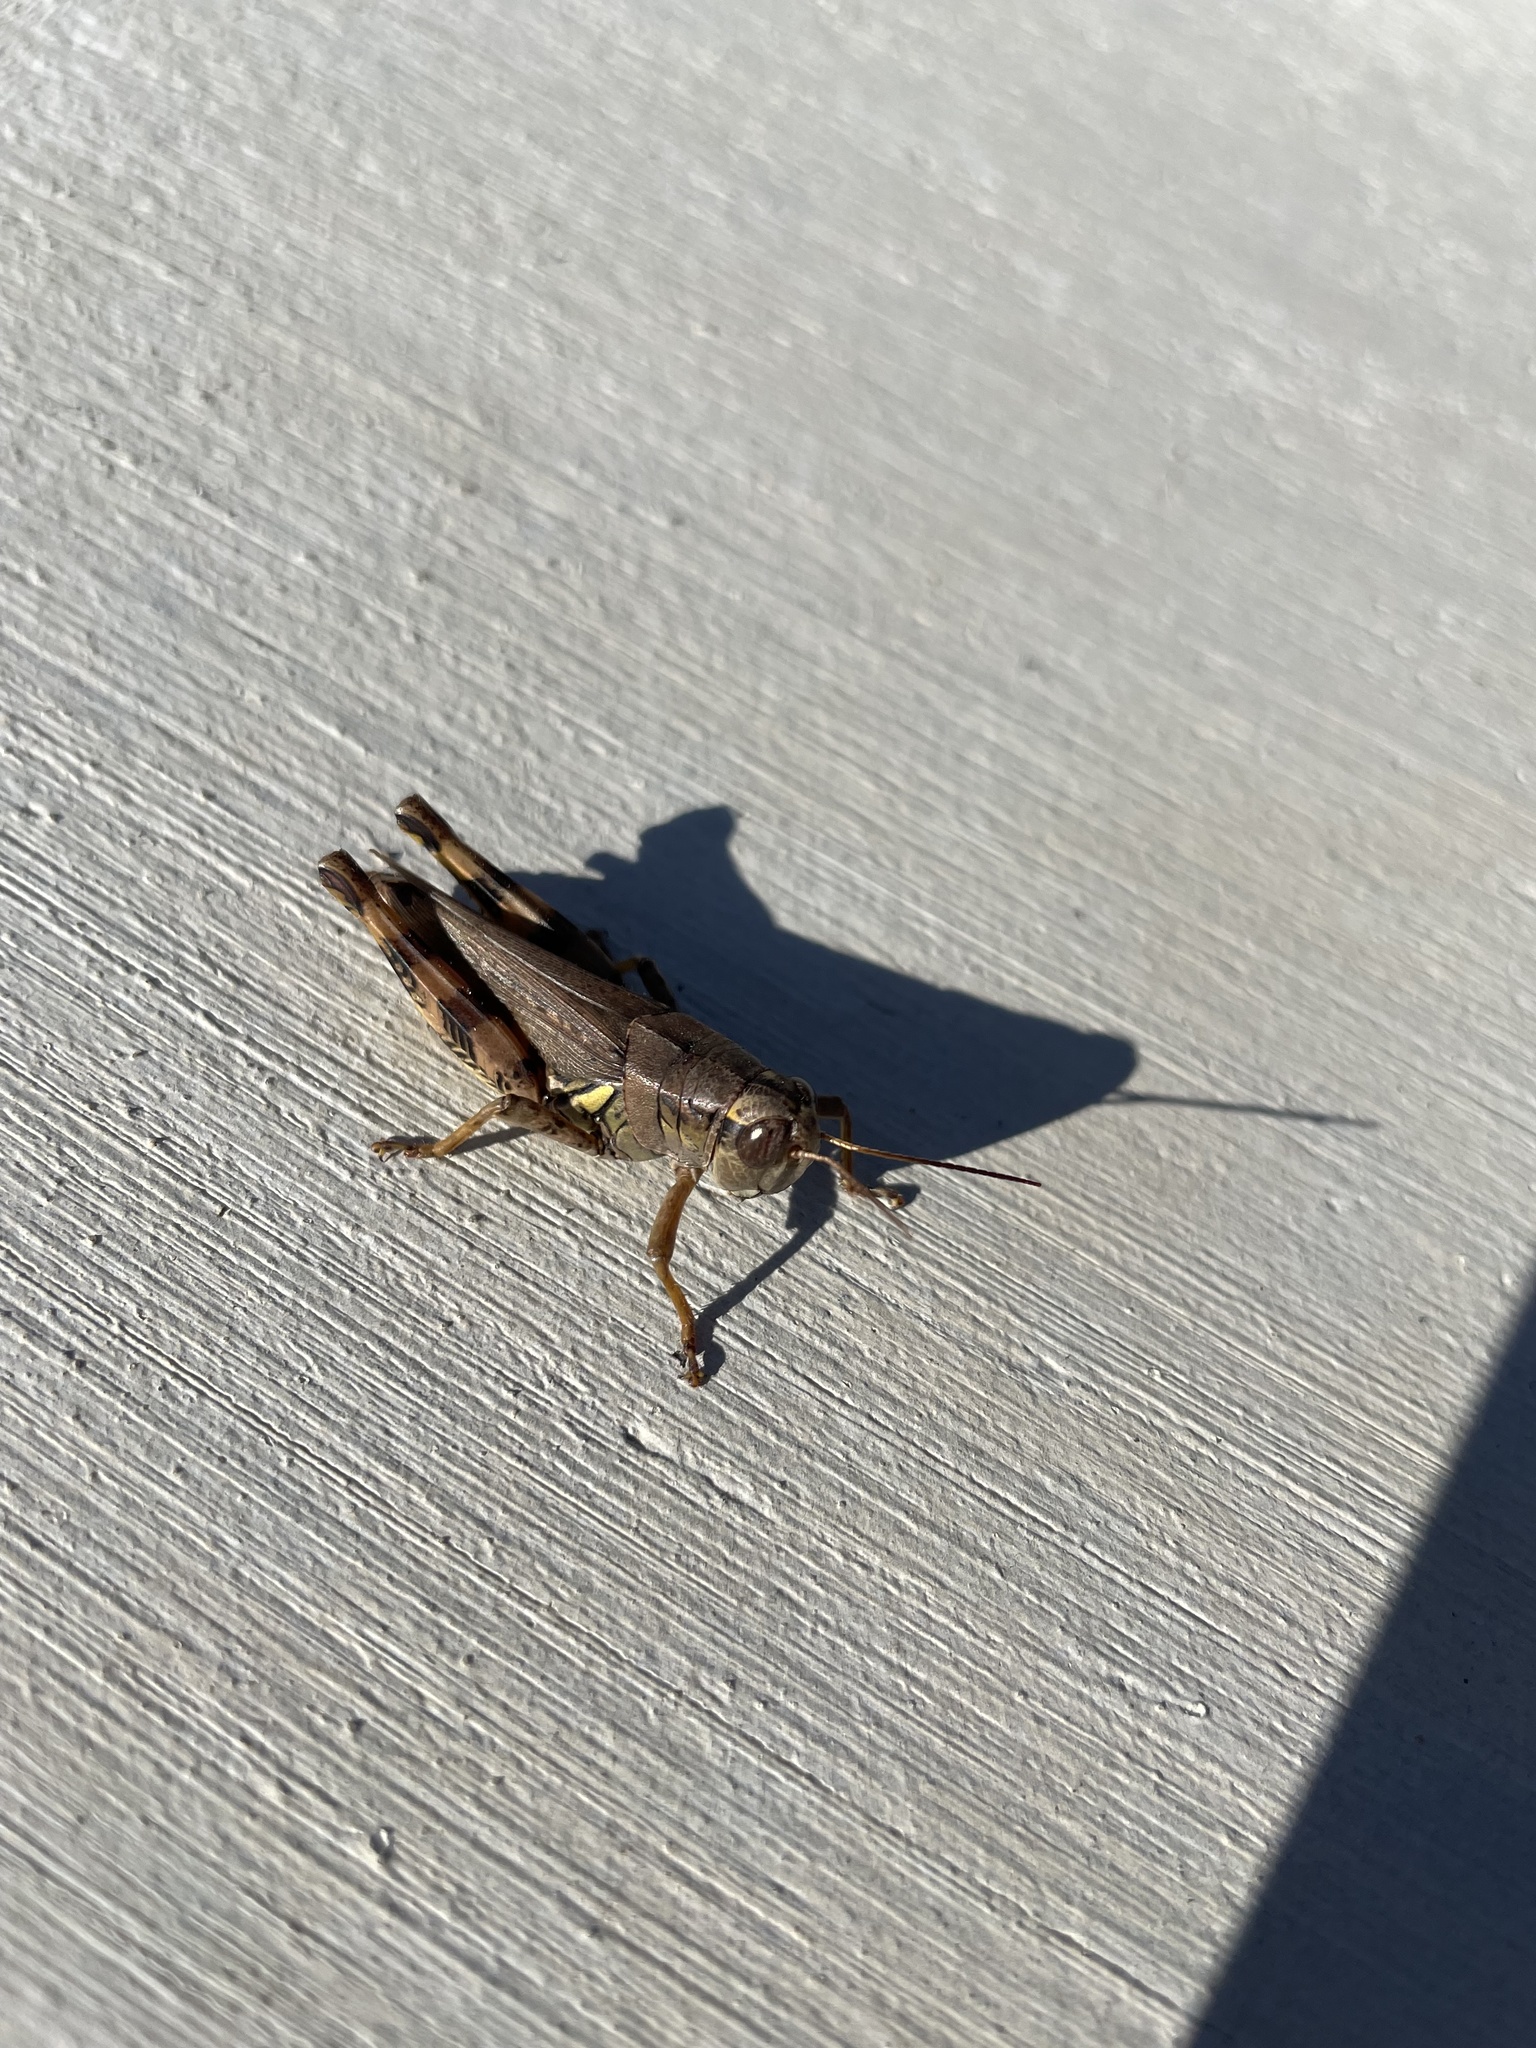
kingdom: Animalia
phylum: Arthropoda
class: Insecta
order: Orthoptera
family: Acrididae
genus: Melanoplus
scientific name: Melanoplus ponderosus
